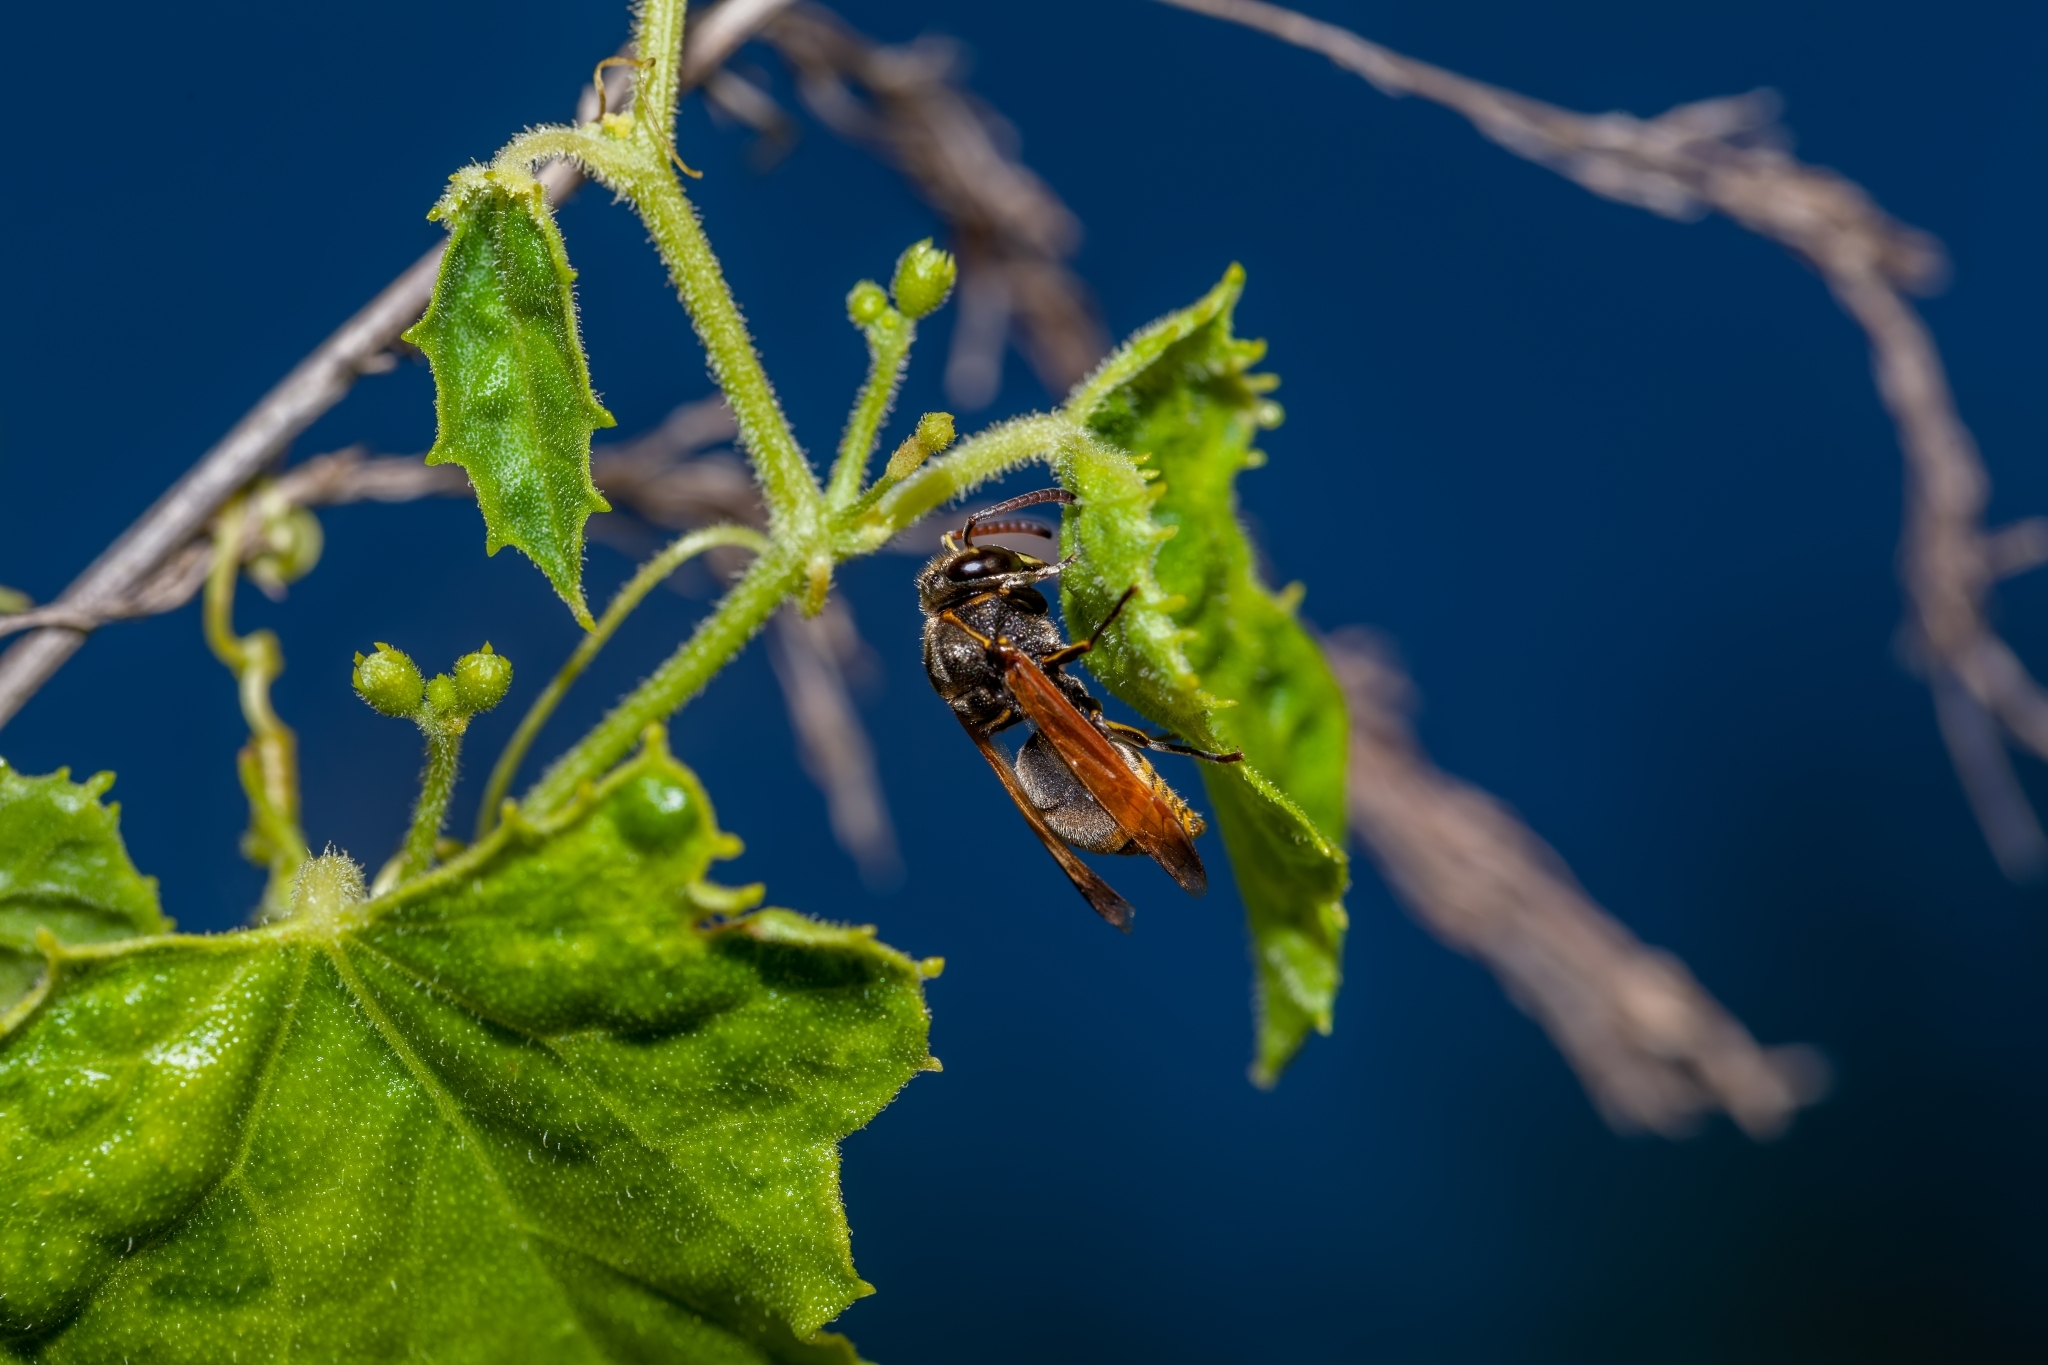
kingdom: Animalia
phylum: Arthropoda
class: Insecta
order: Hymenoptera
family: Eumenidae
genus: Pachodynerus
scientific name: Pachodynerus nasidens
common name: Key hole wasp
